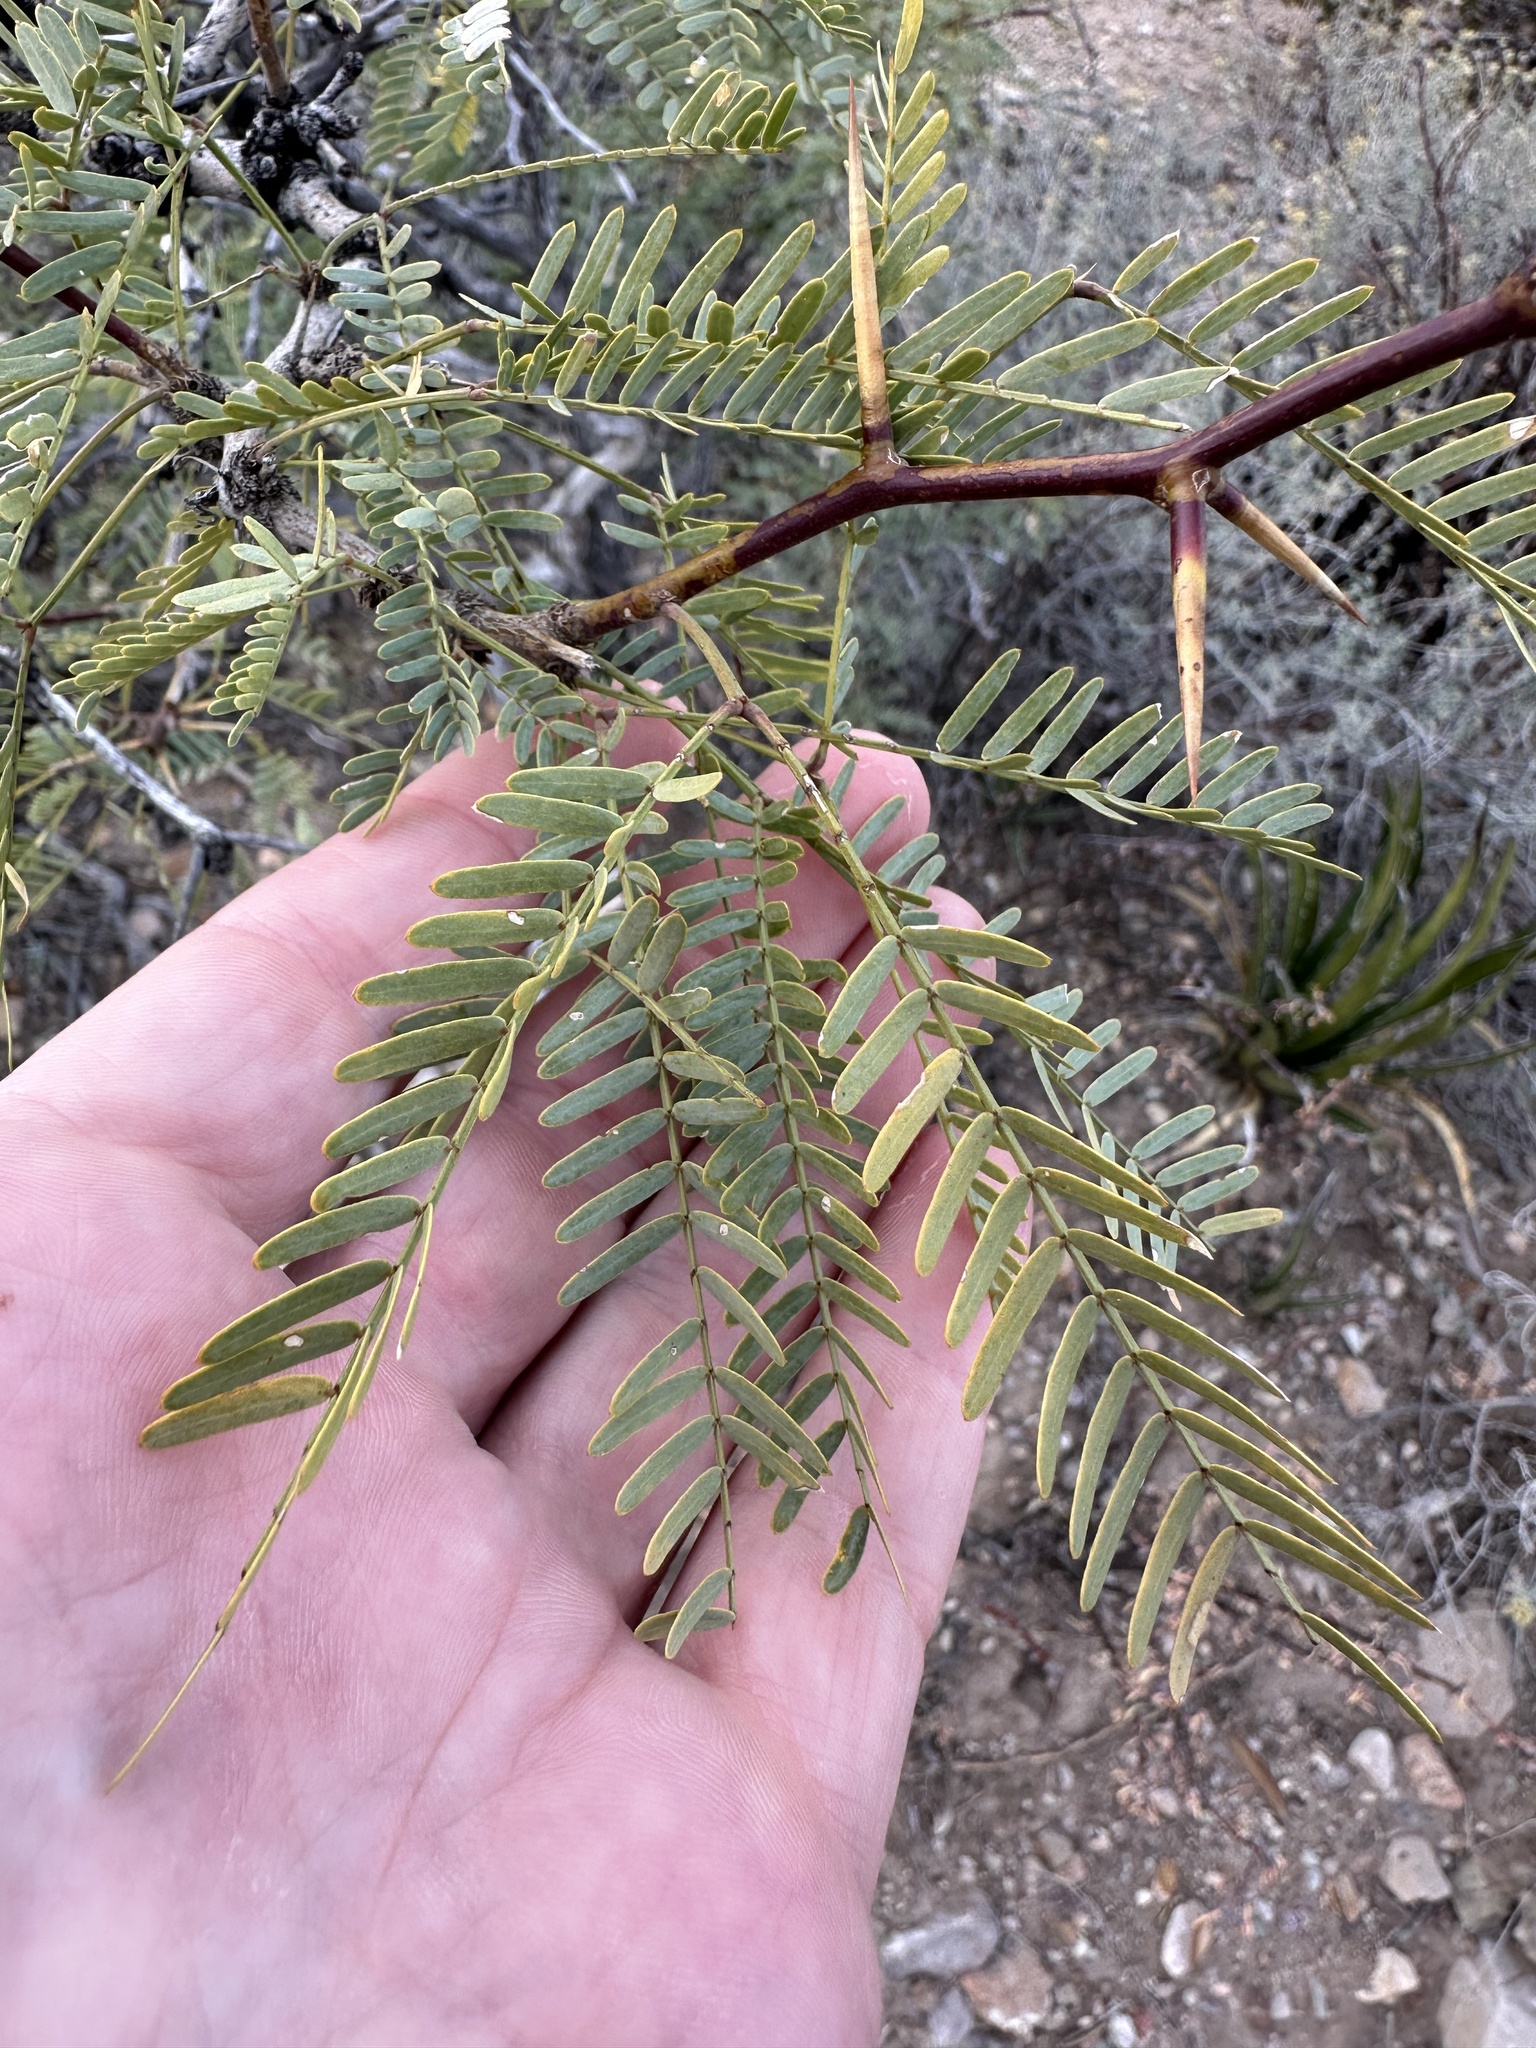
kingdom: Plantae
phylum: Tracheophyta
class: Magnoliopsida
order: Fabales
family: Fabaceae
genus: Prosopis
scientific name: Prosopis pubescens
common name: Screw-bean
